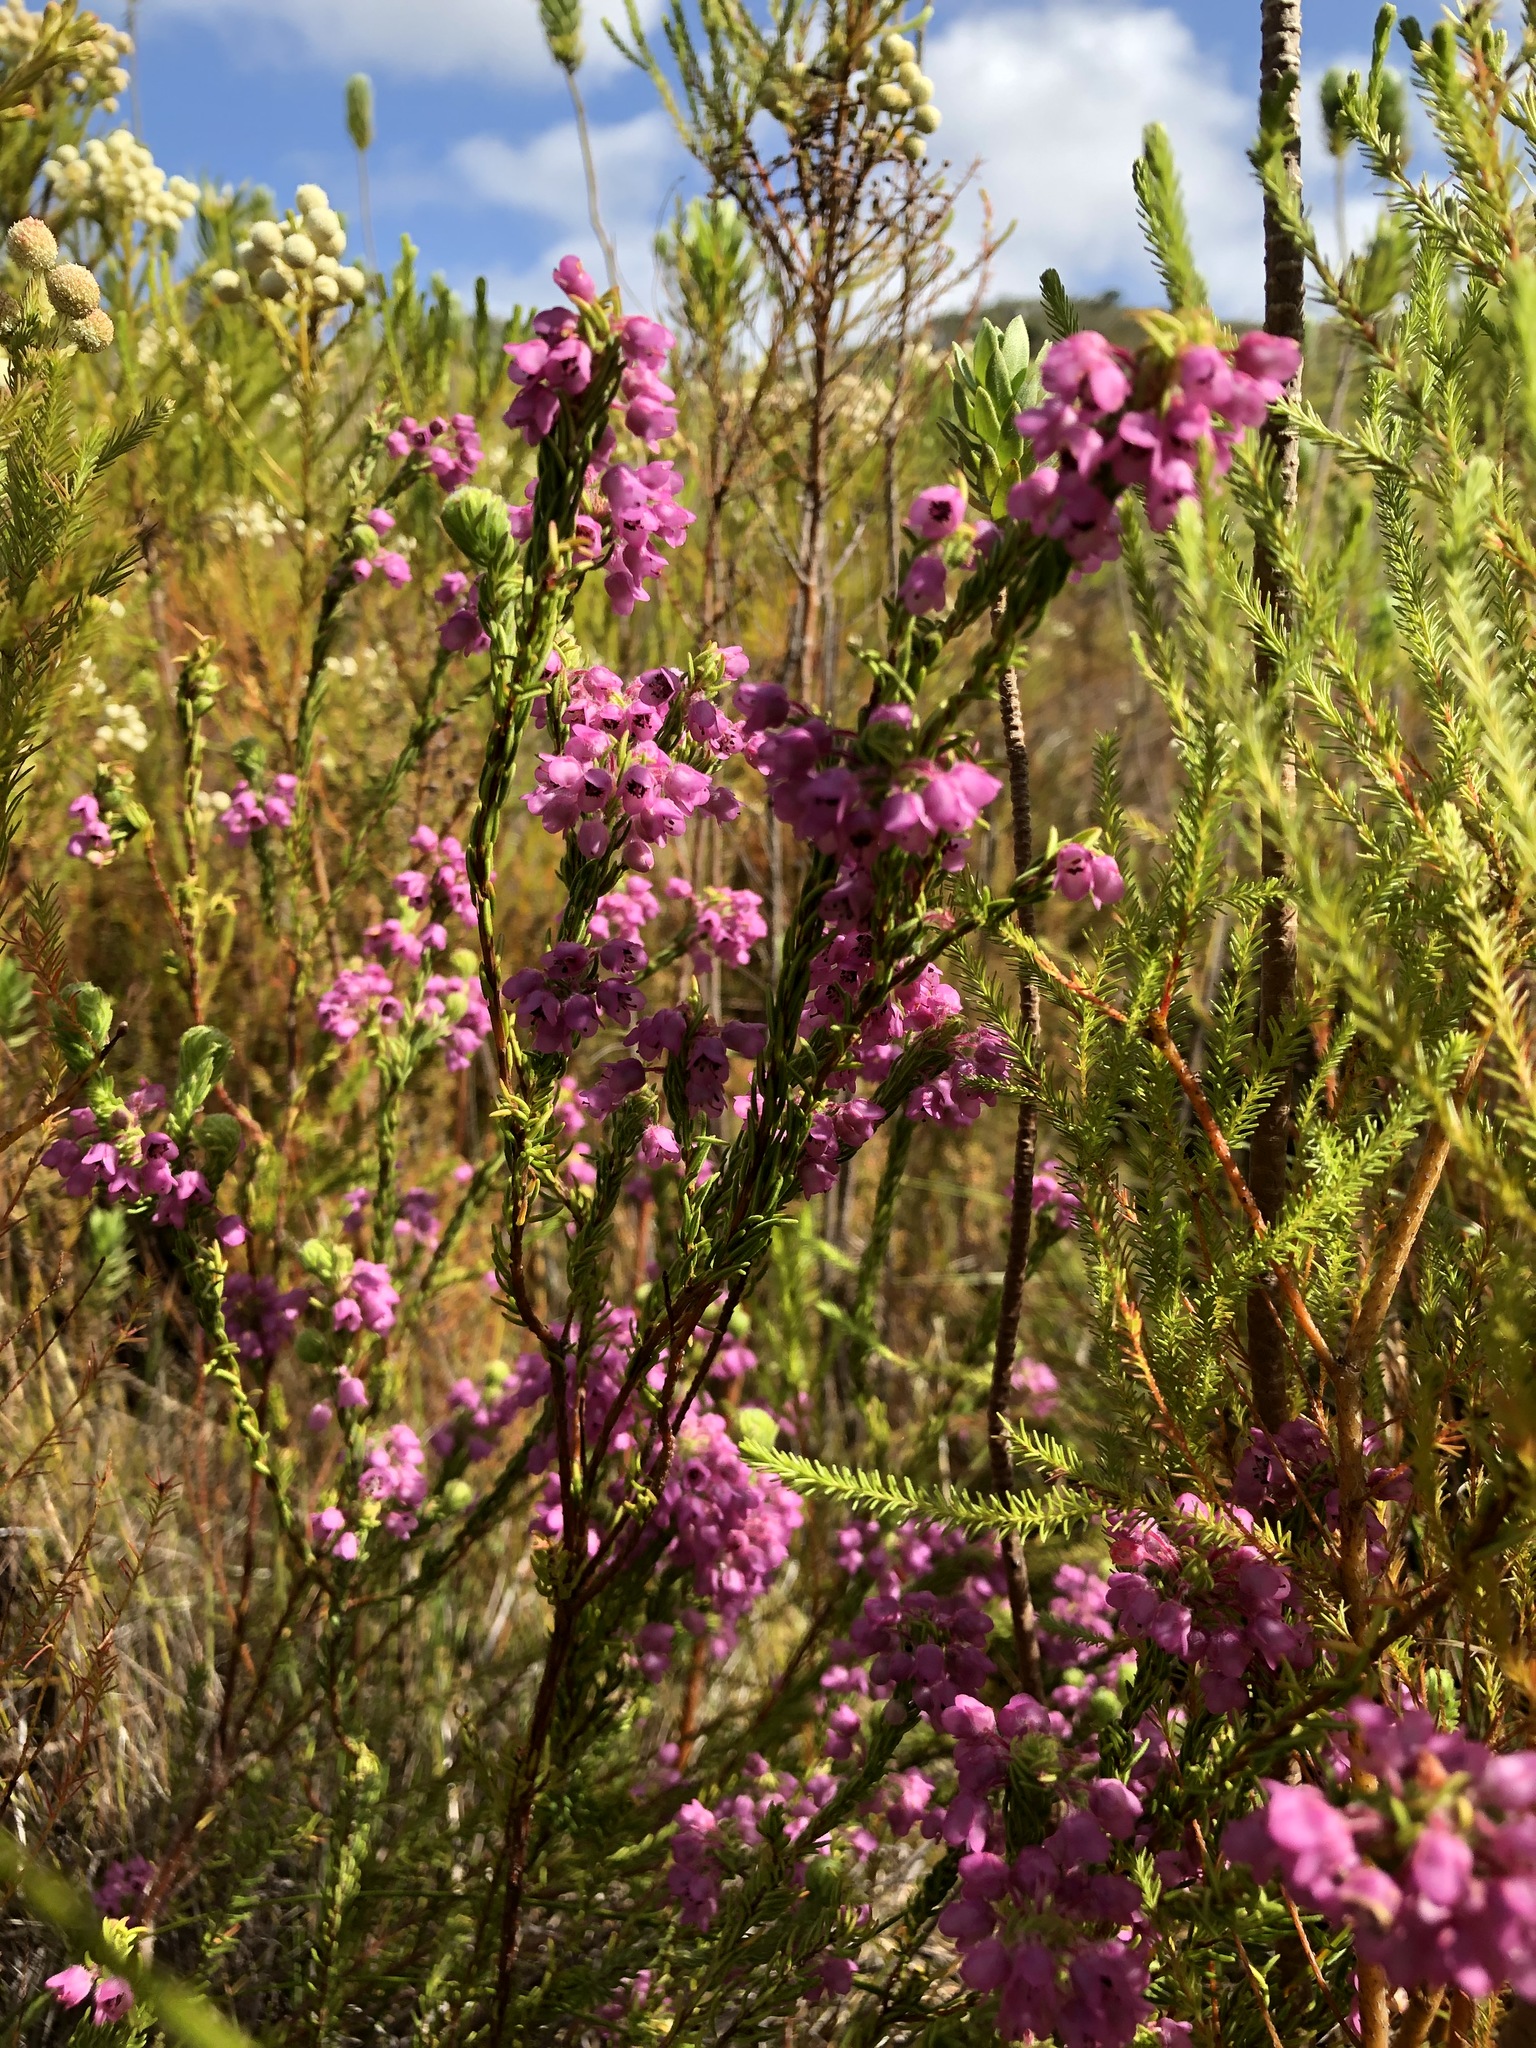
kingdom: Plantae
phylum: Tracheophyta
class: Magnoliopsida
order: Ericales
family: Ericaceae
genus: Erica
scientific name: Erica amoena
